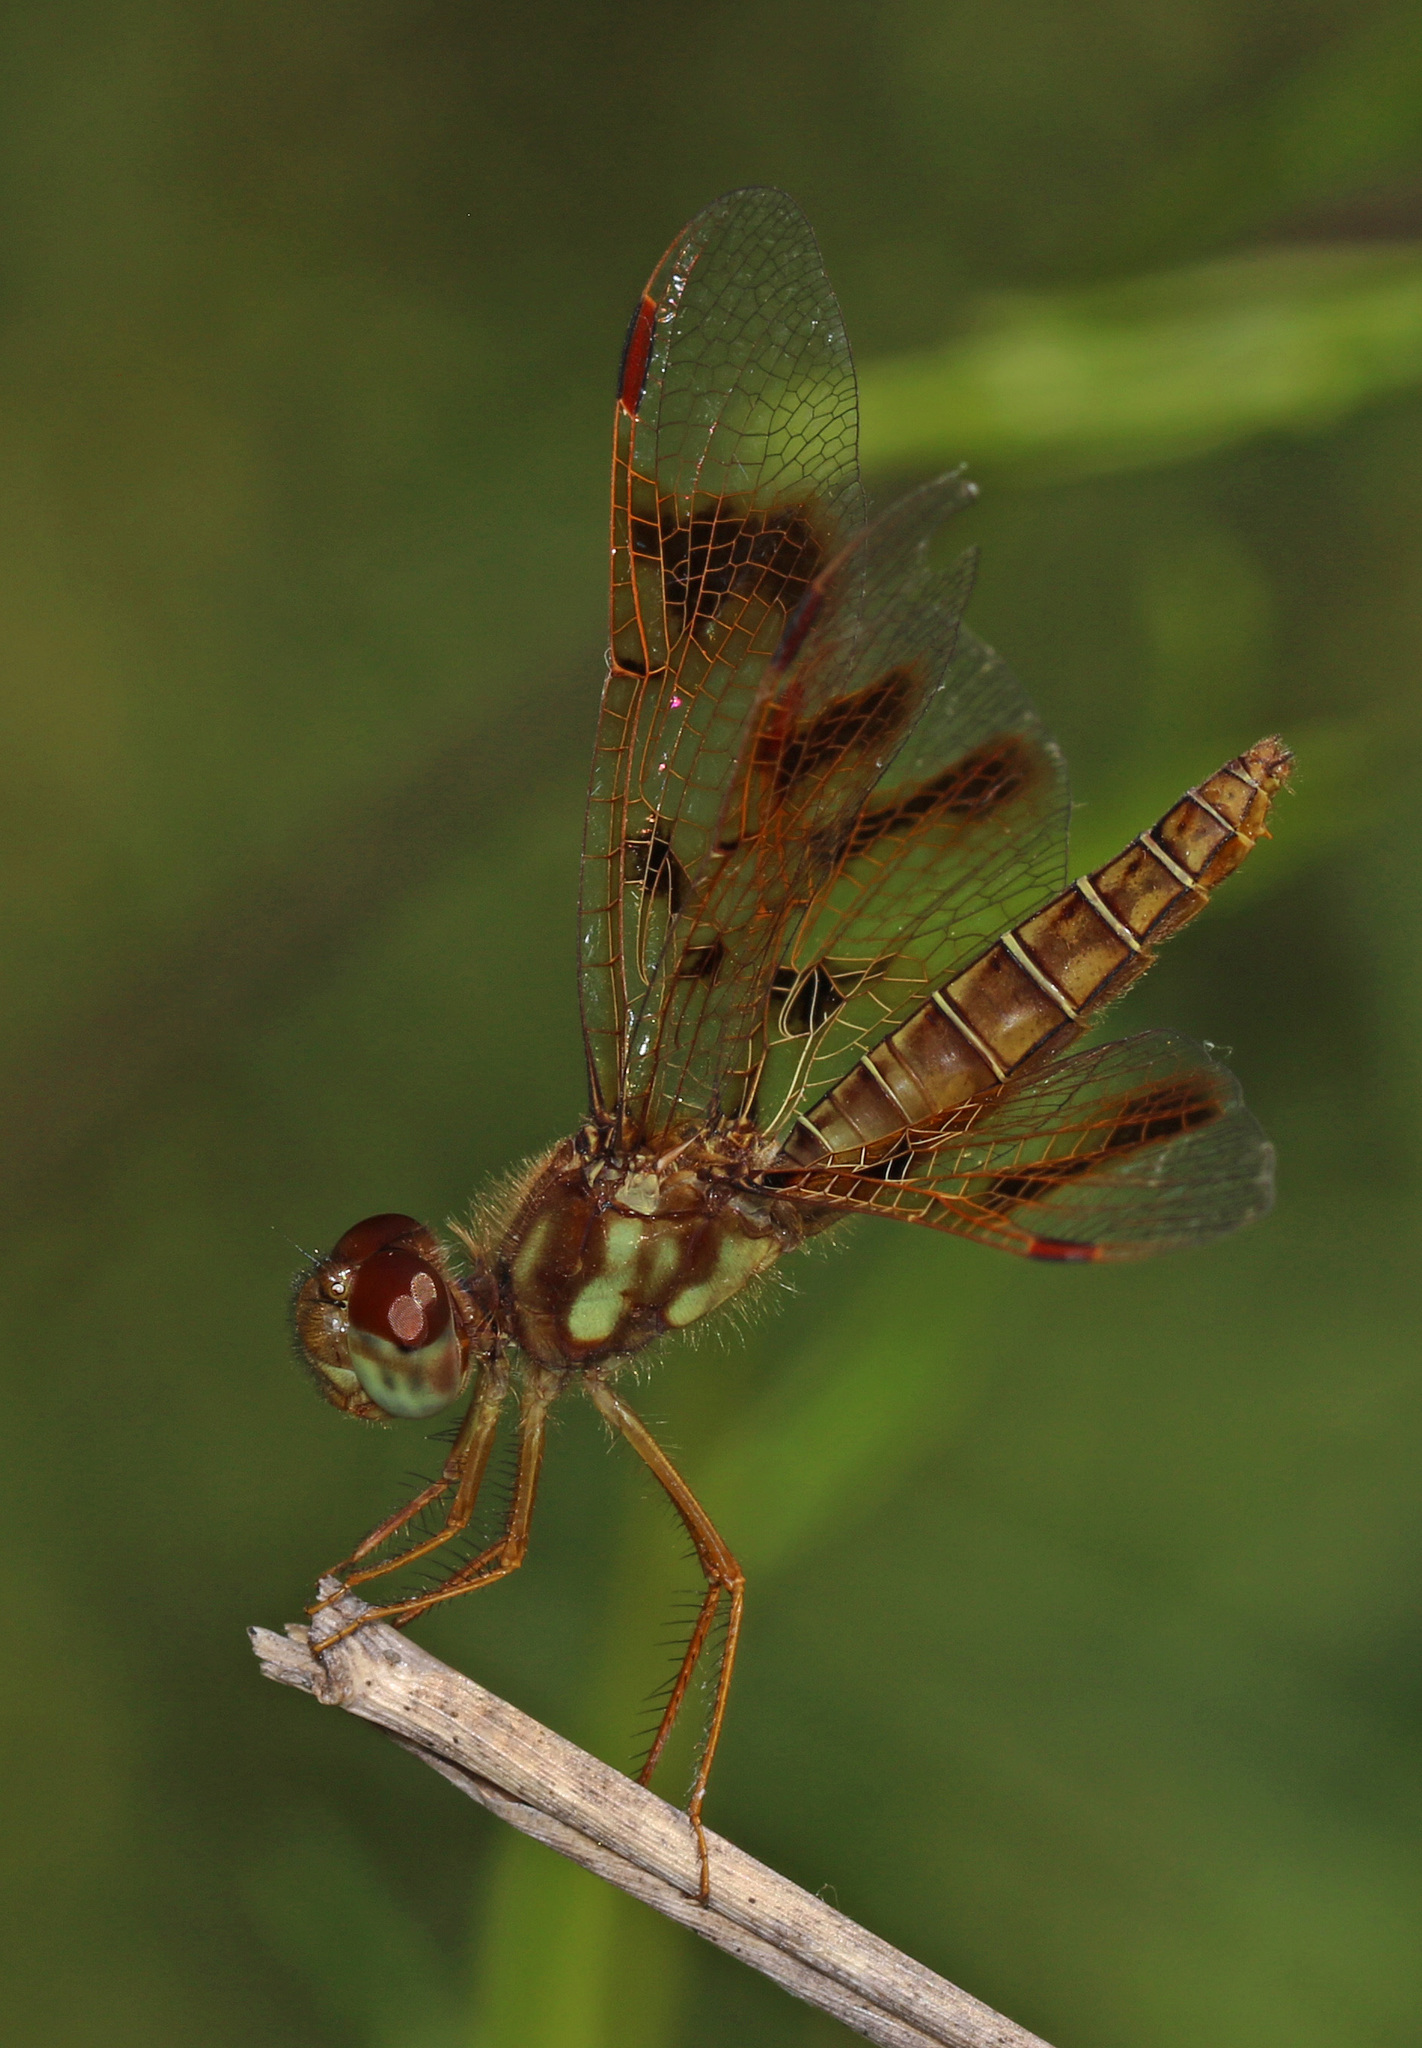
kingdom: Animalia
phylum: Arthropoda
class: Insecta
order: Odonata
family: Libellulidae
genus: Perithemis
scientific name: Perithemis tenera
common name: Eastern amberwing
